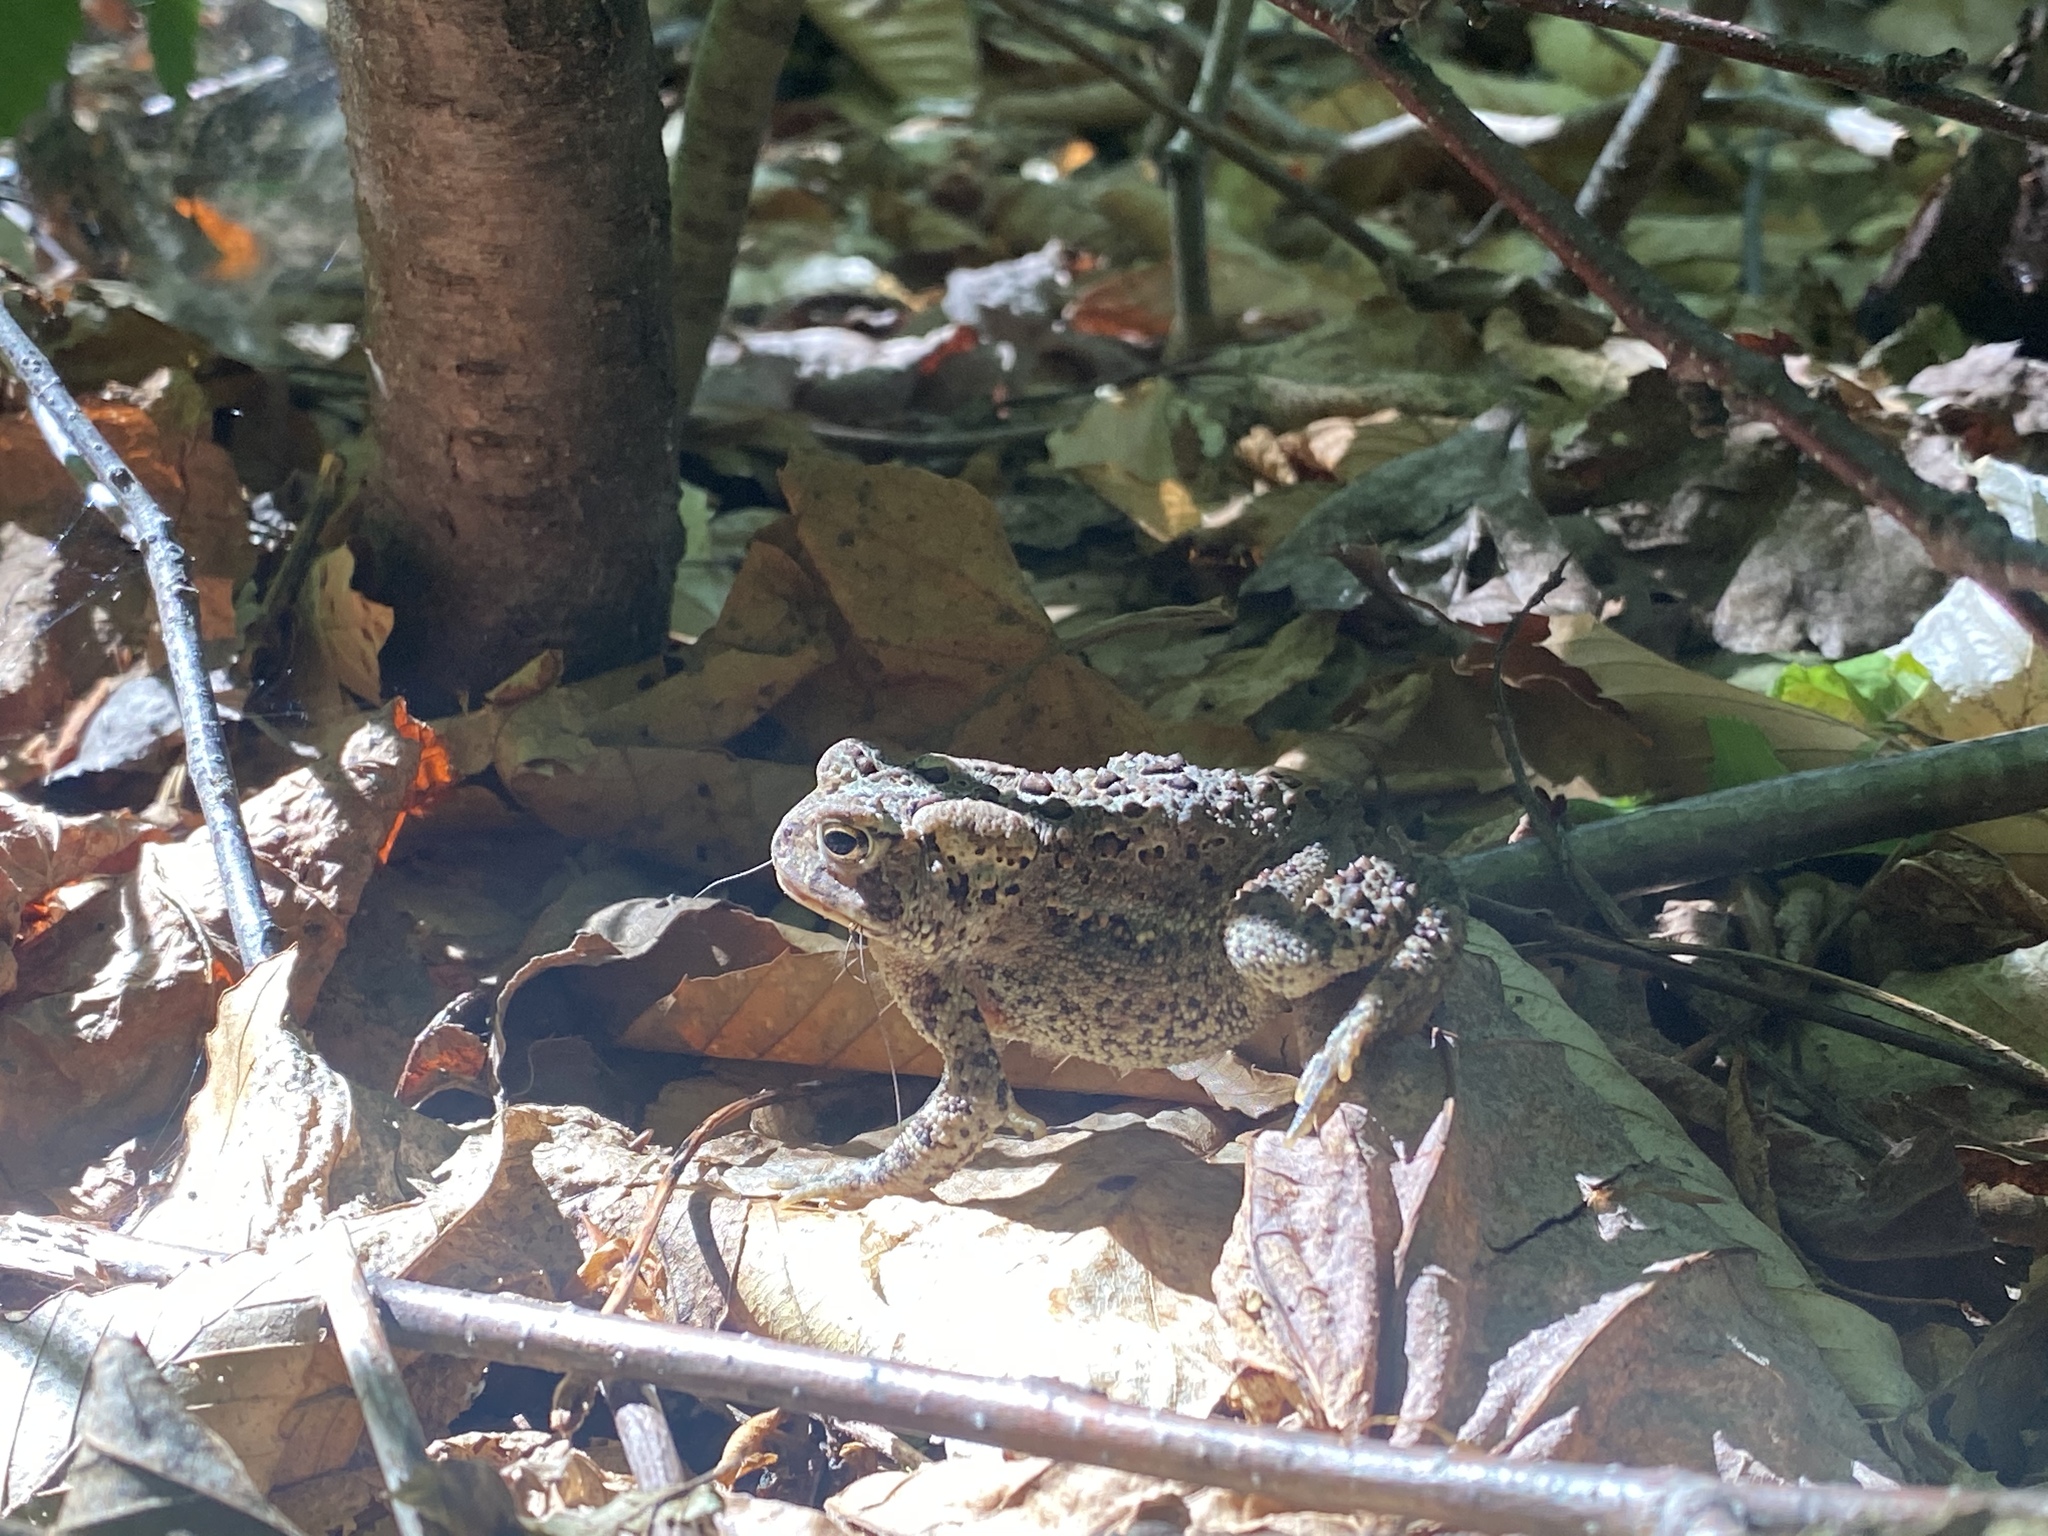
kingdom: Animalia
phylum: Chordata
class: Amphibia
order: Anura
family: Bufonidae
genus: Anaxyrus
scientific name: Anaxyrus americanus
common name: American toad
